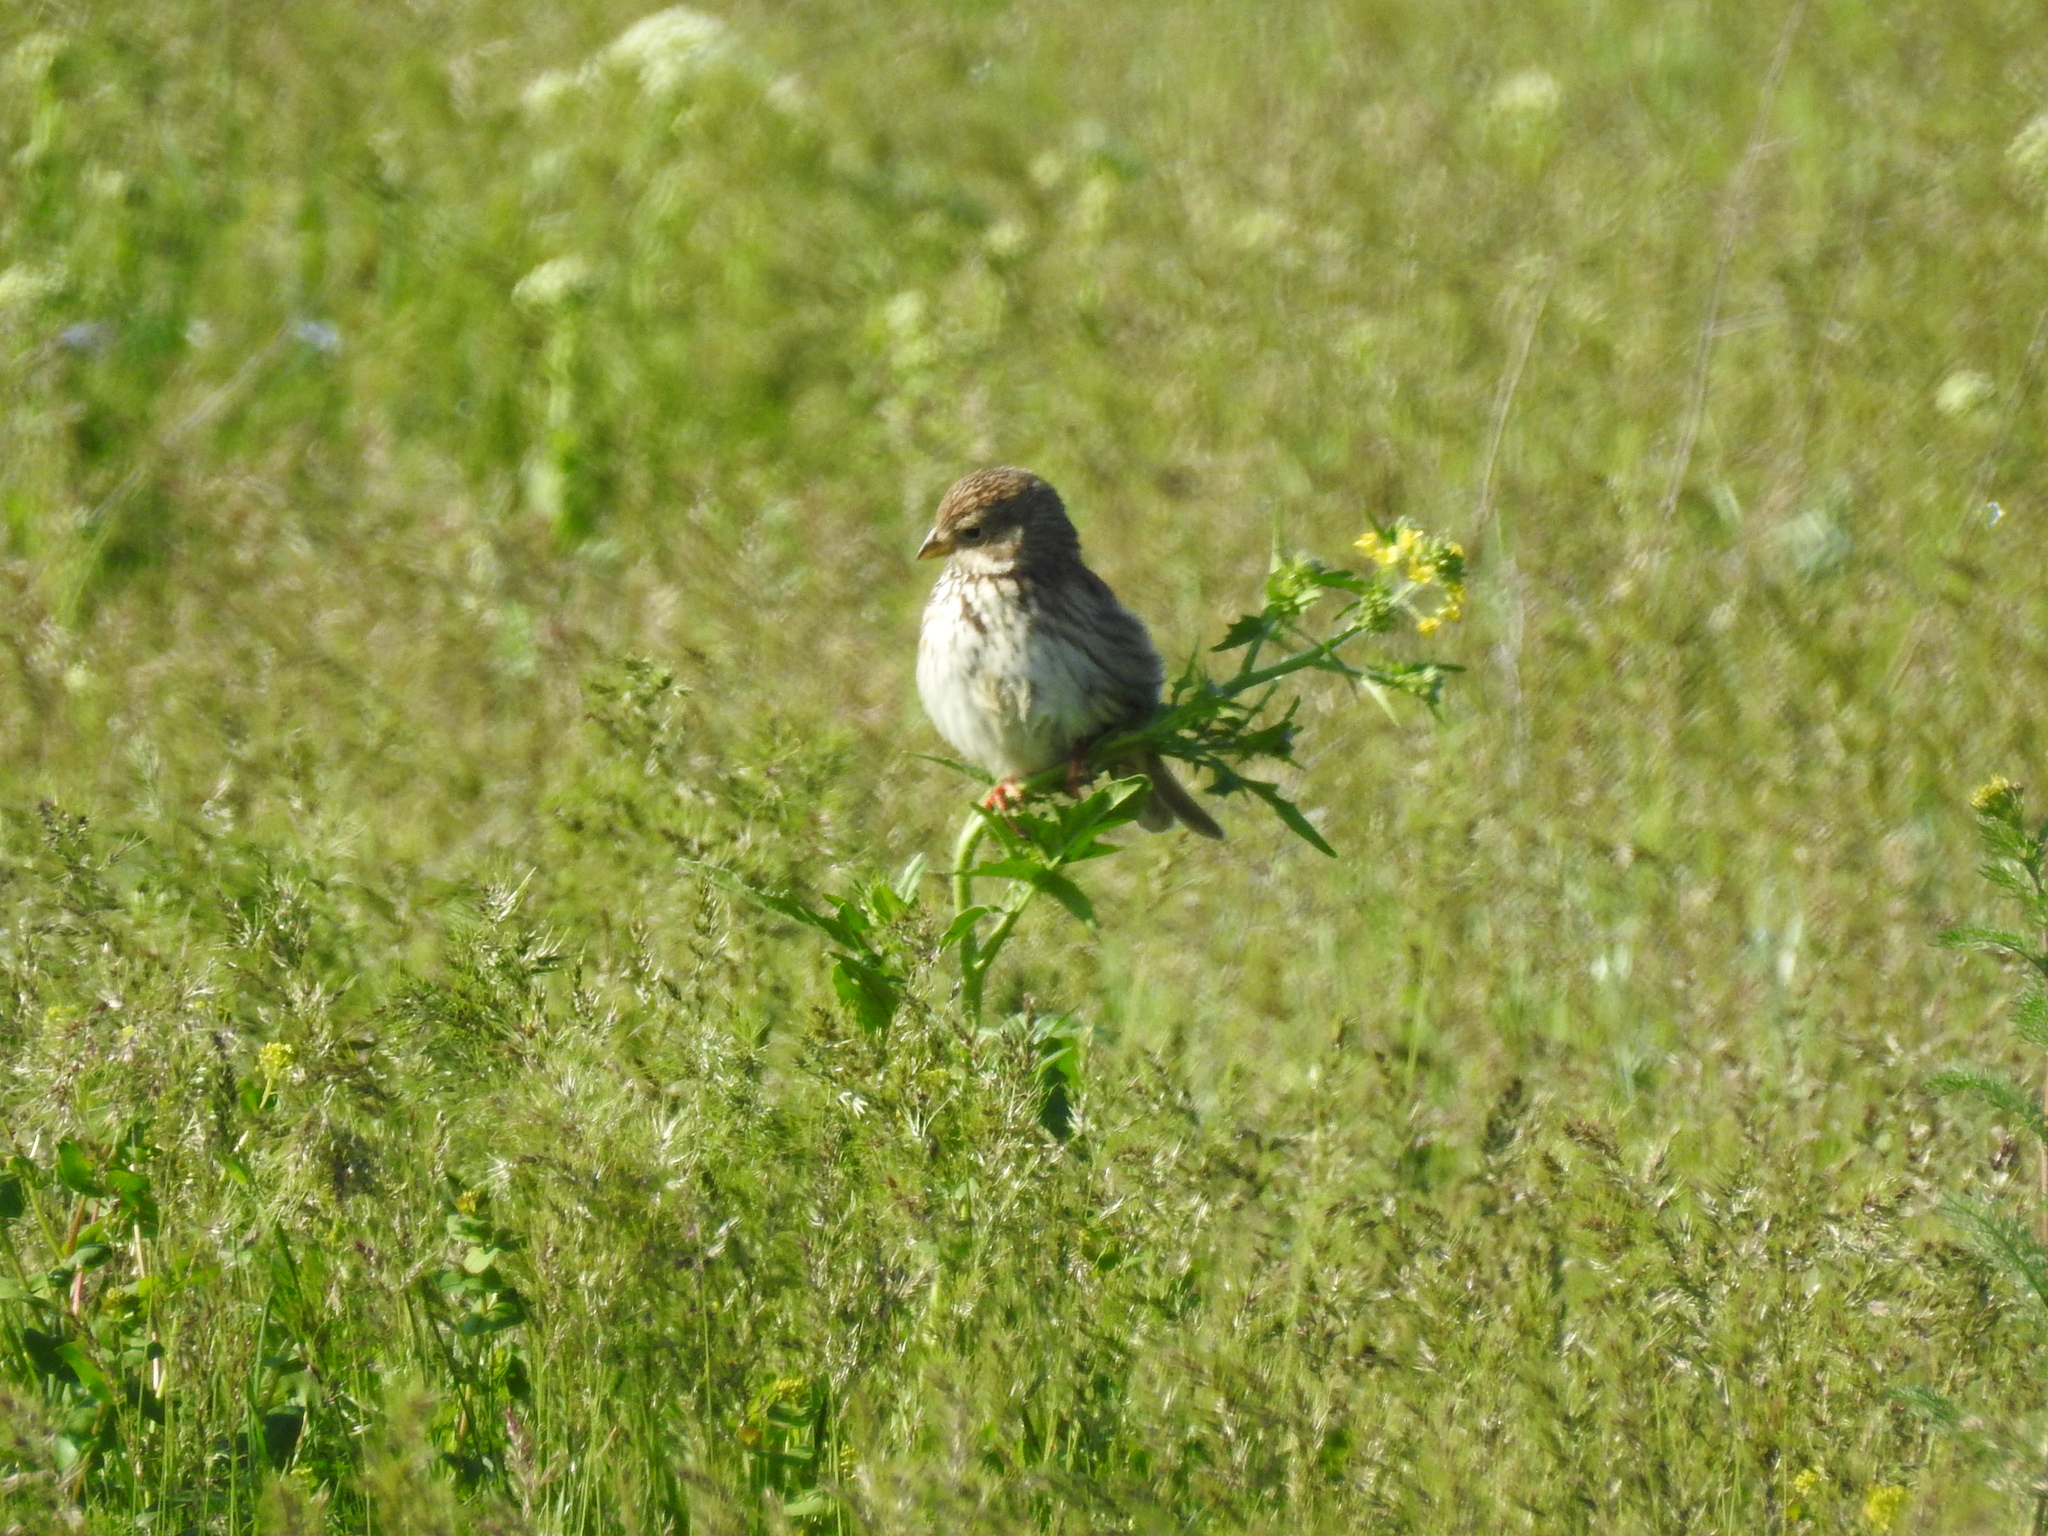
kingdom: Animalia
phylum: Chordata
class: Aves
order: Passeriformes
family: Emberizidae
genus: Emberiza
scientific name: Emberiza calandra
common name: Corn bunting
